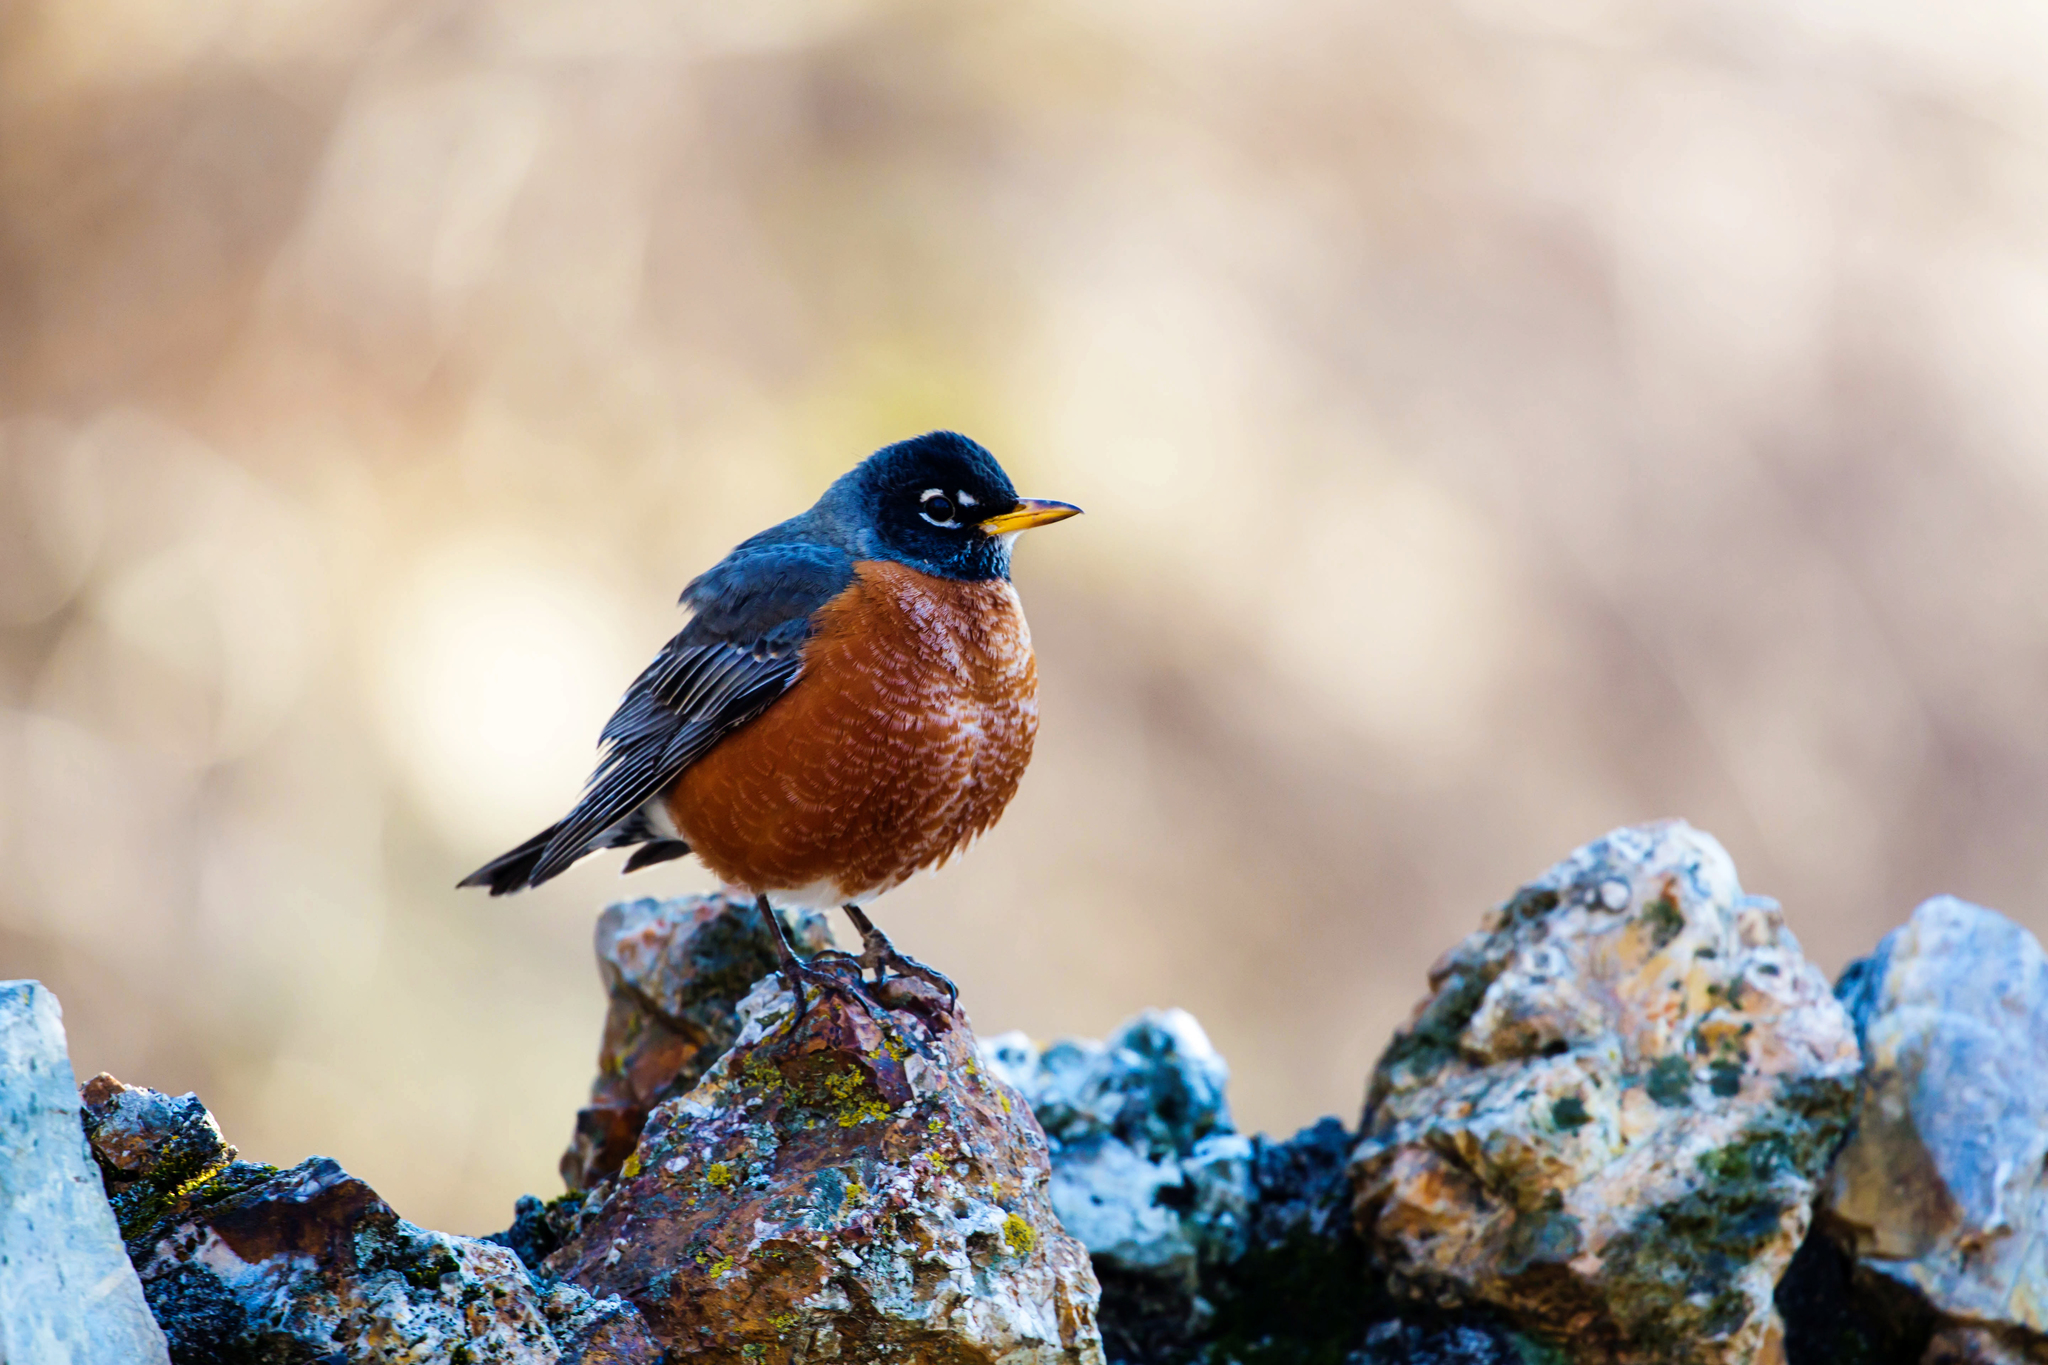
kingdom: Animalia
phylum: Chordata
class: Aves
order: Passeriformes
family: Turdidae
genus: Turdus
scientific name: Turdus migratorius
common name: American robin
